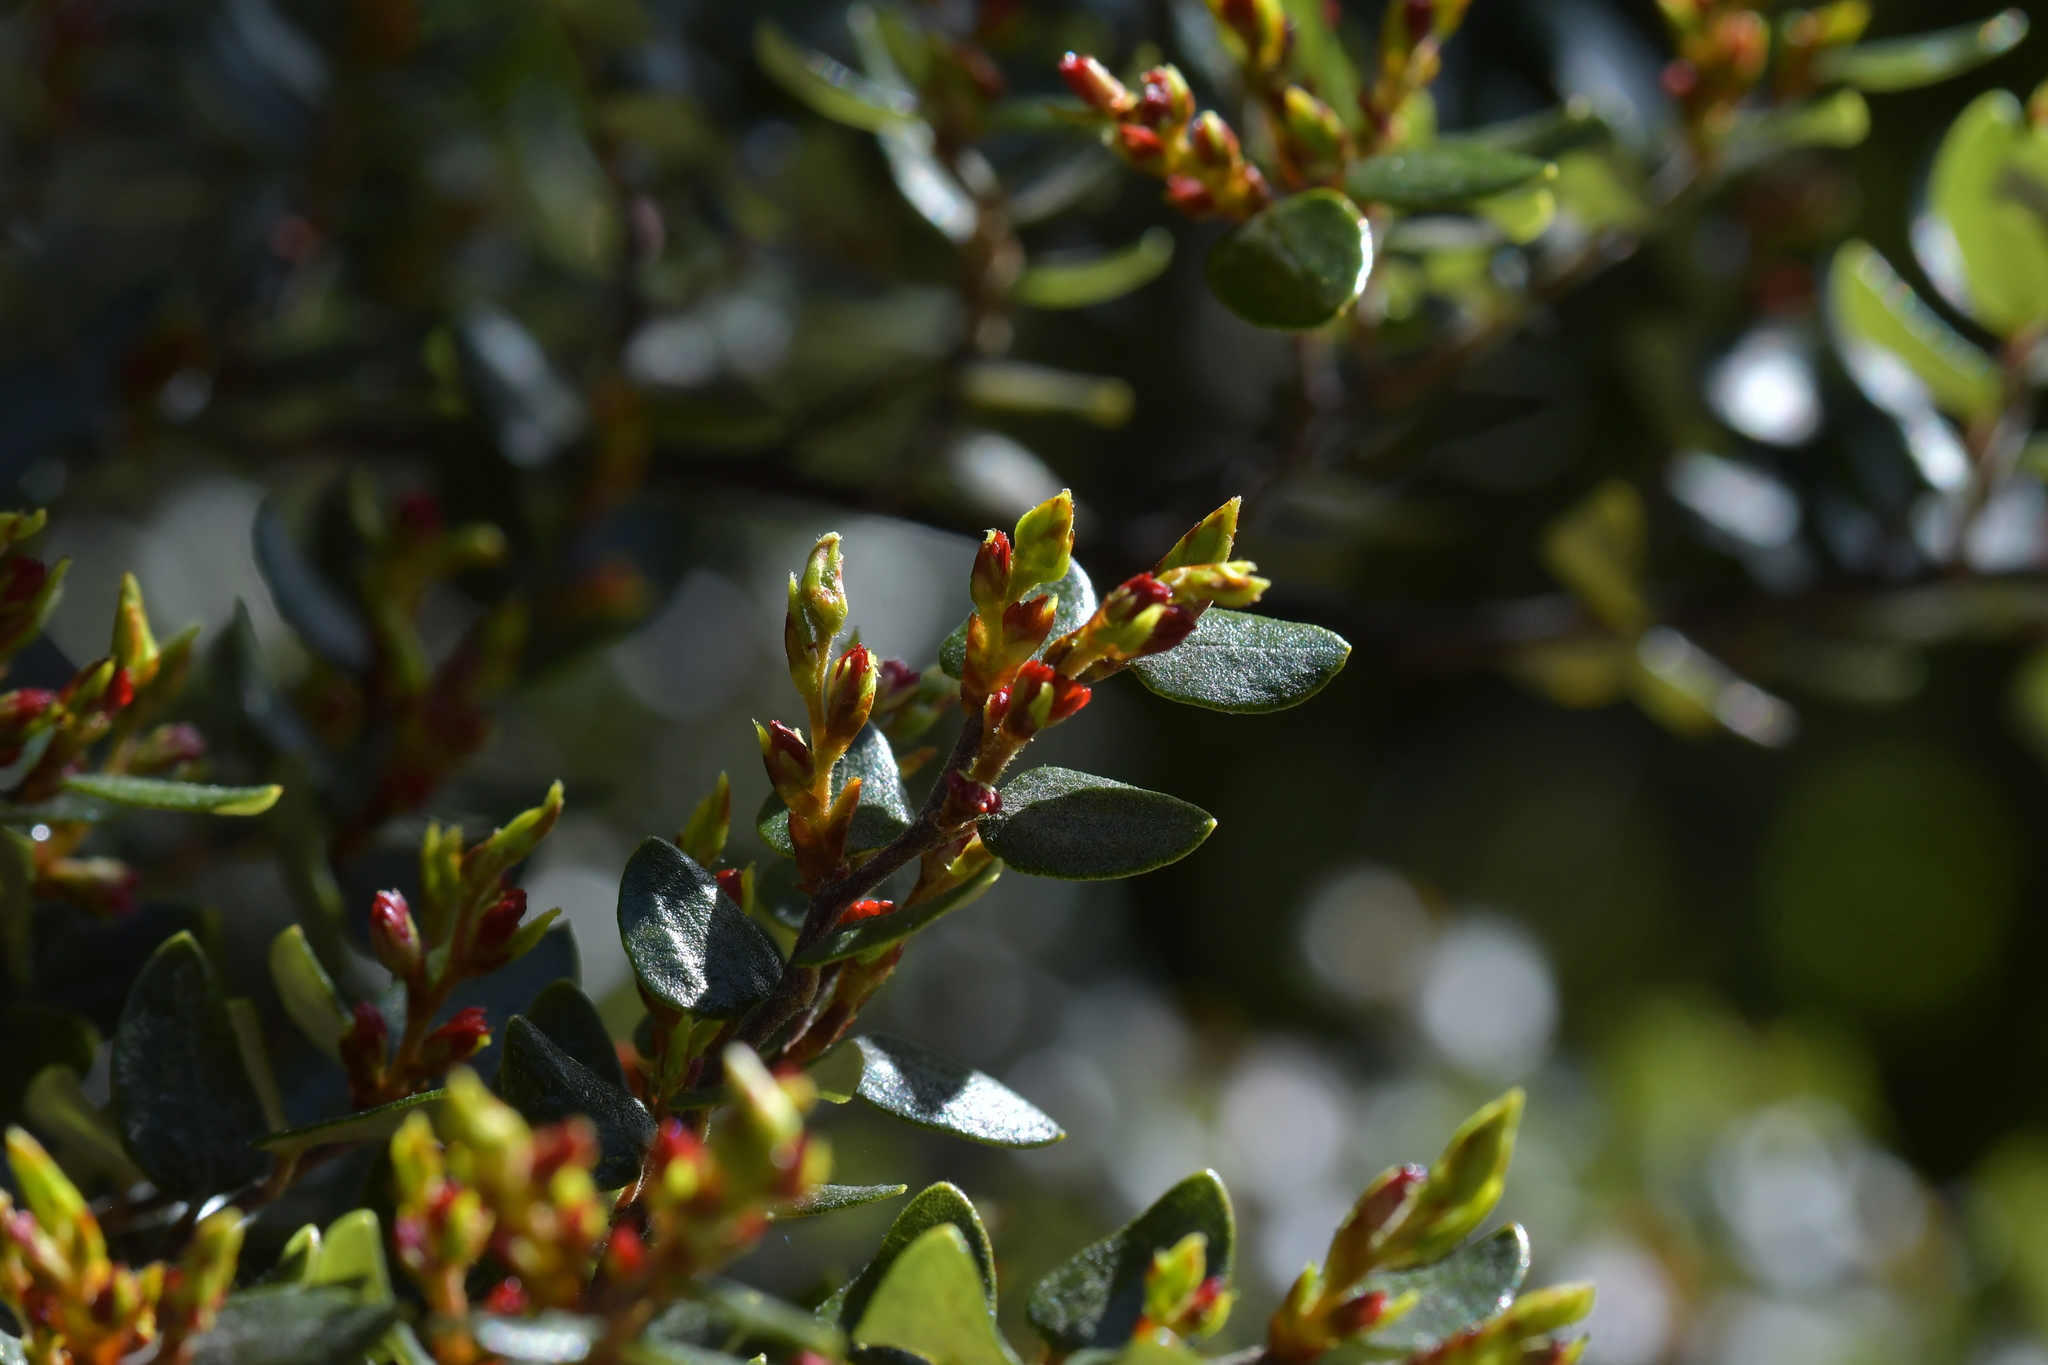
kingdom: Plantae
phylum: Tracheophyta
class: Magnoliopsida
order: Fagales
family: Nothofagaceae
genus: Nothofagus
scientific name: Nothofagus cliffortioides
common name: Mountain beech
